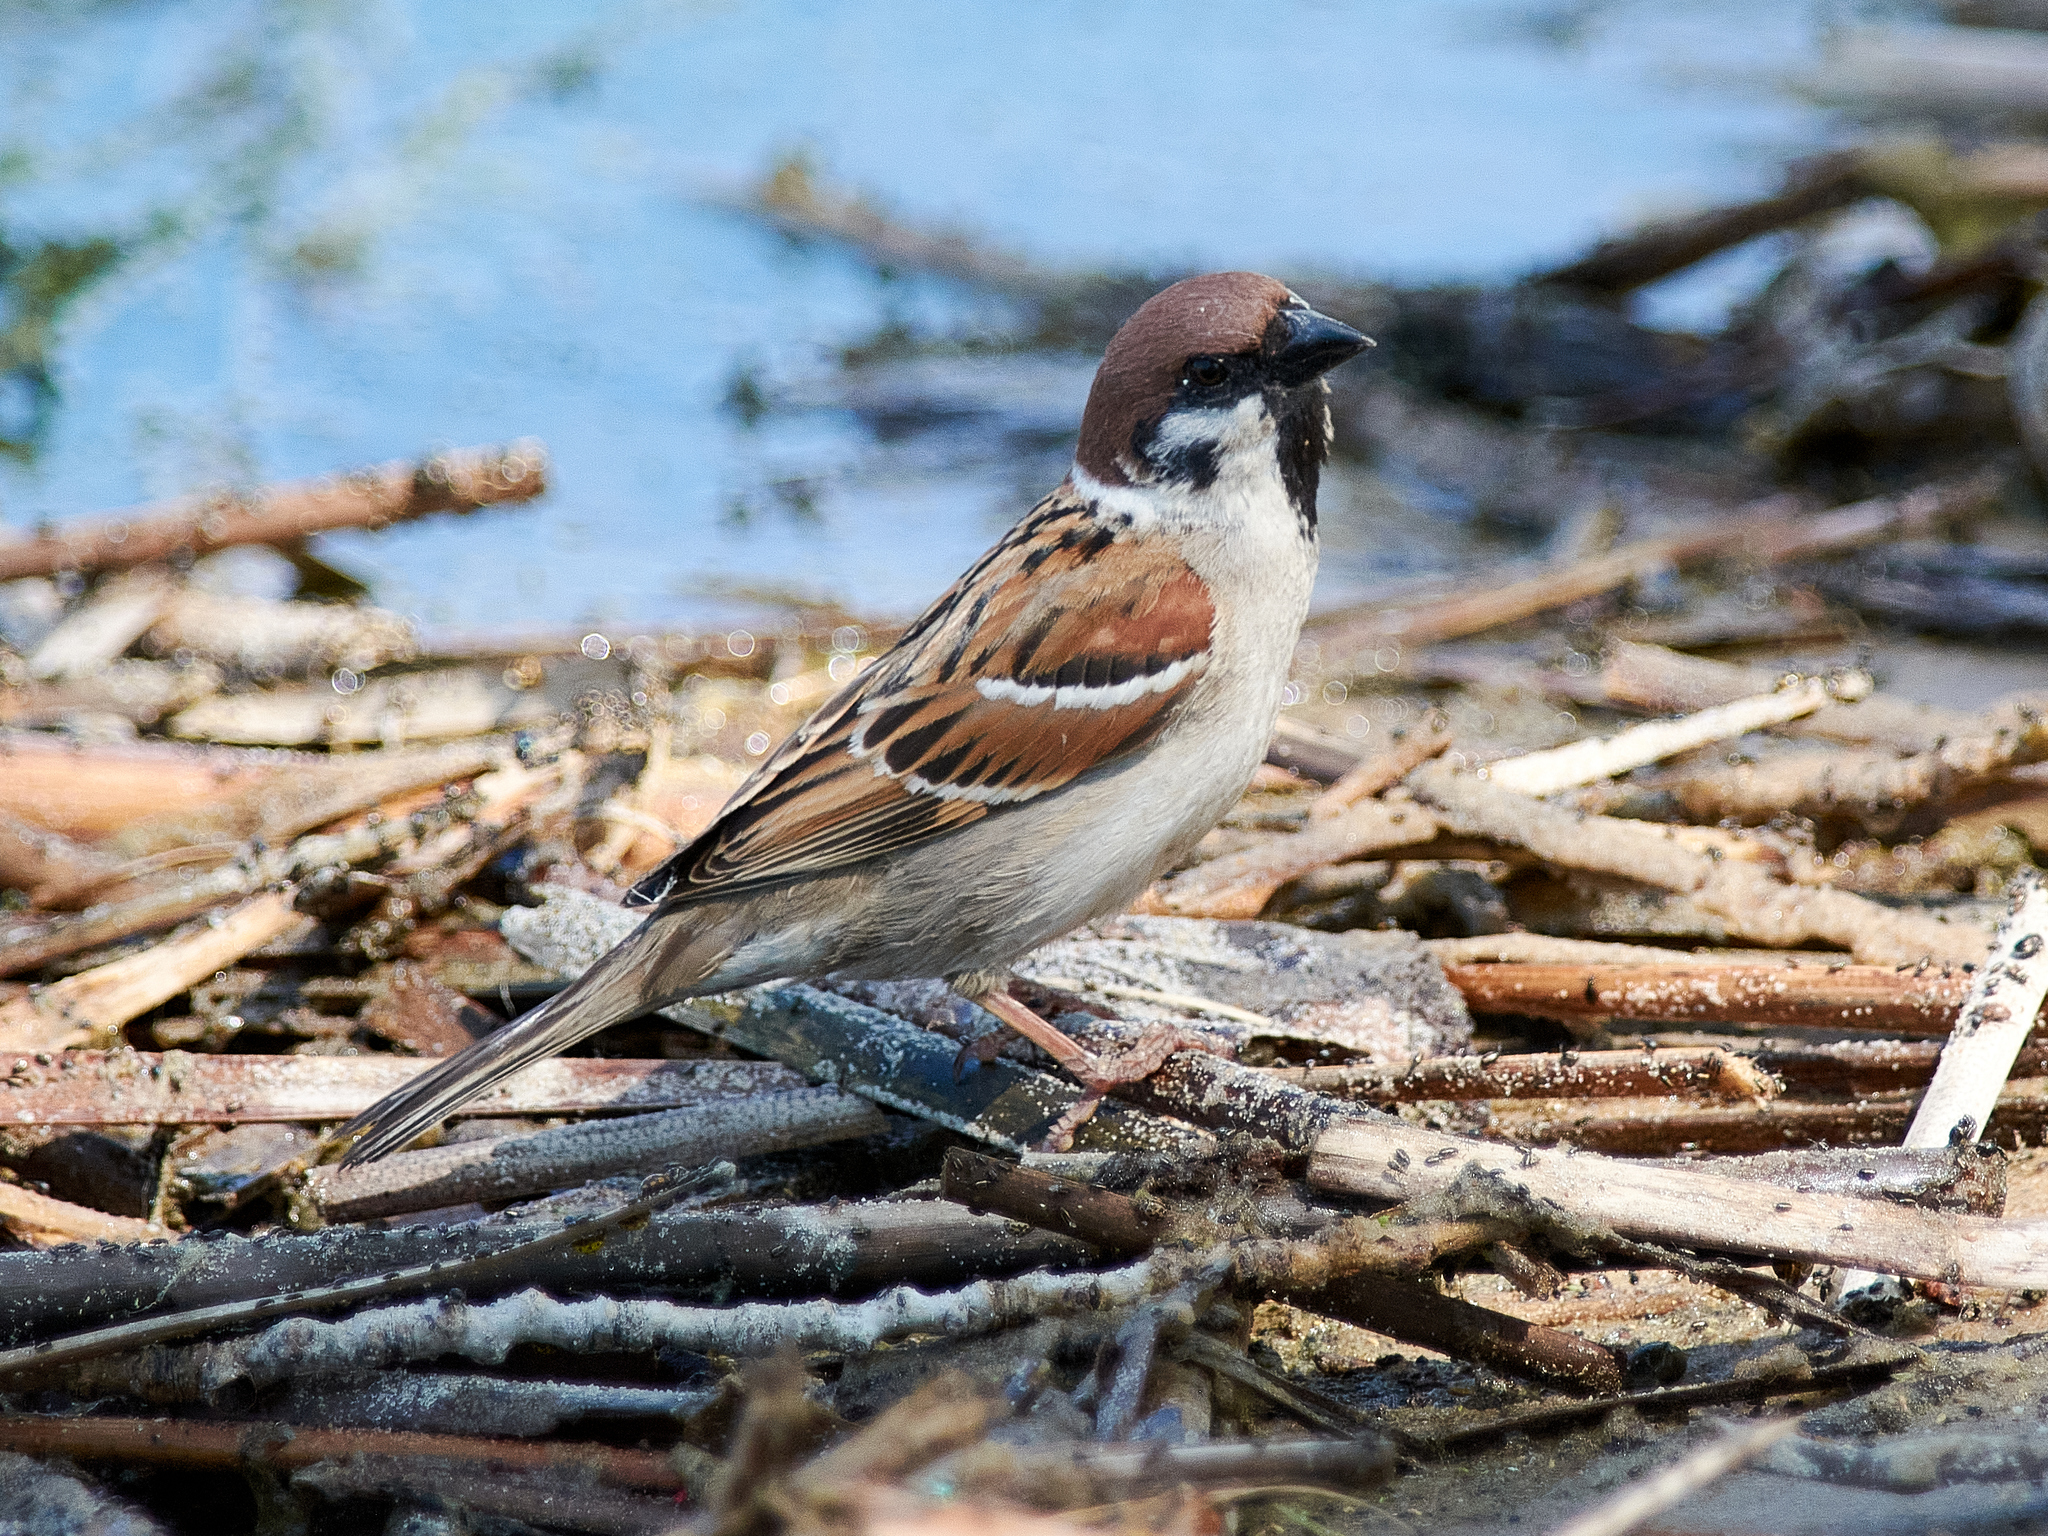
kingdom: Animalia
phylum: Chordata
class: Aves
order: Passeriformes
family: Passeridae
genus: Passer
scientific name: Passer montanus
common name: Eurasian tree sparrow
